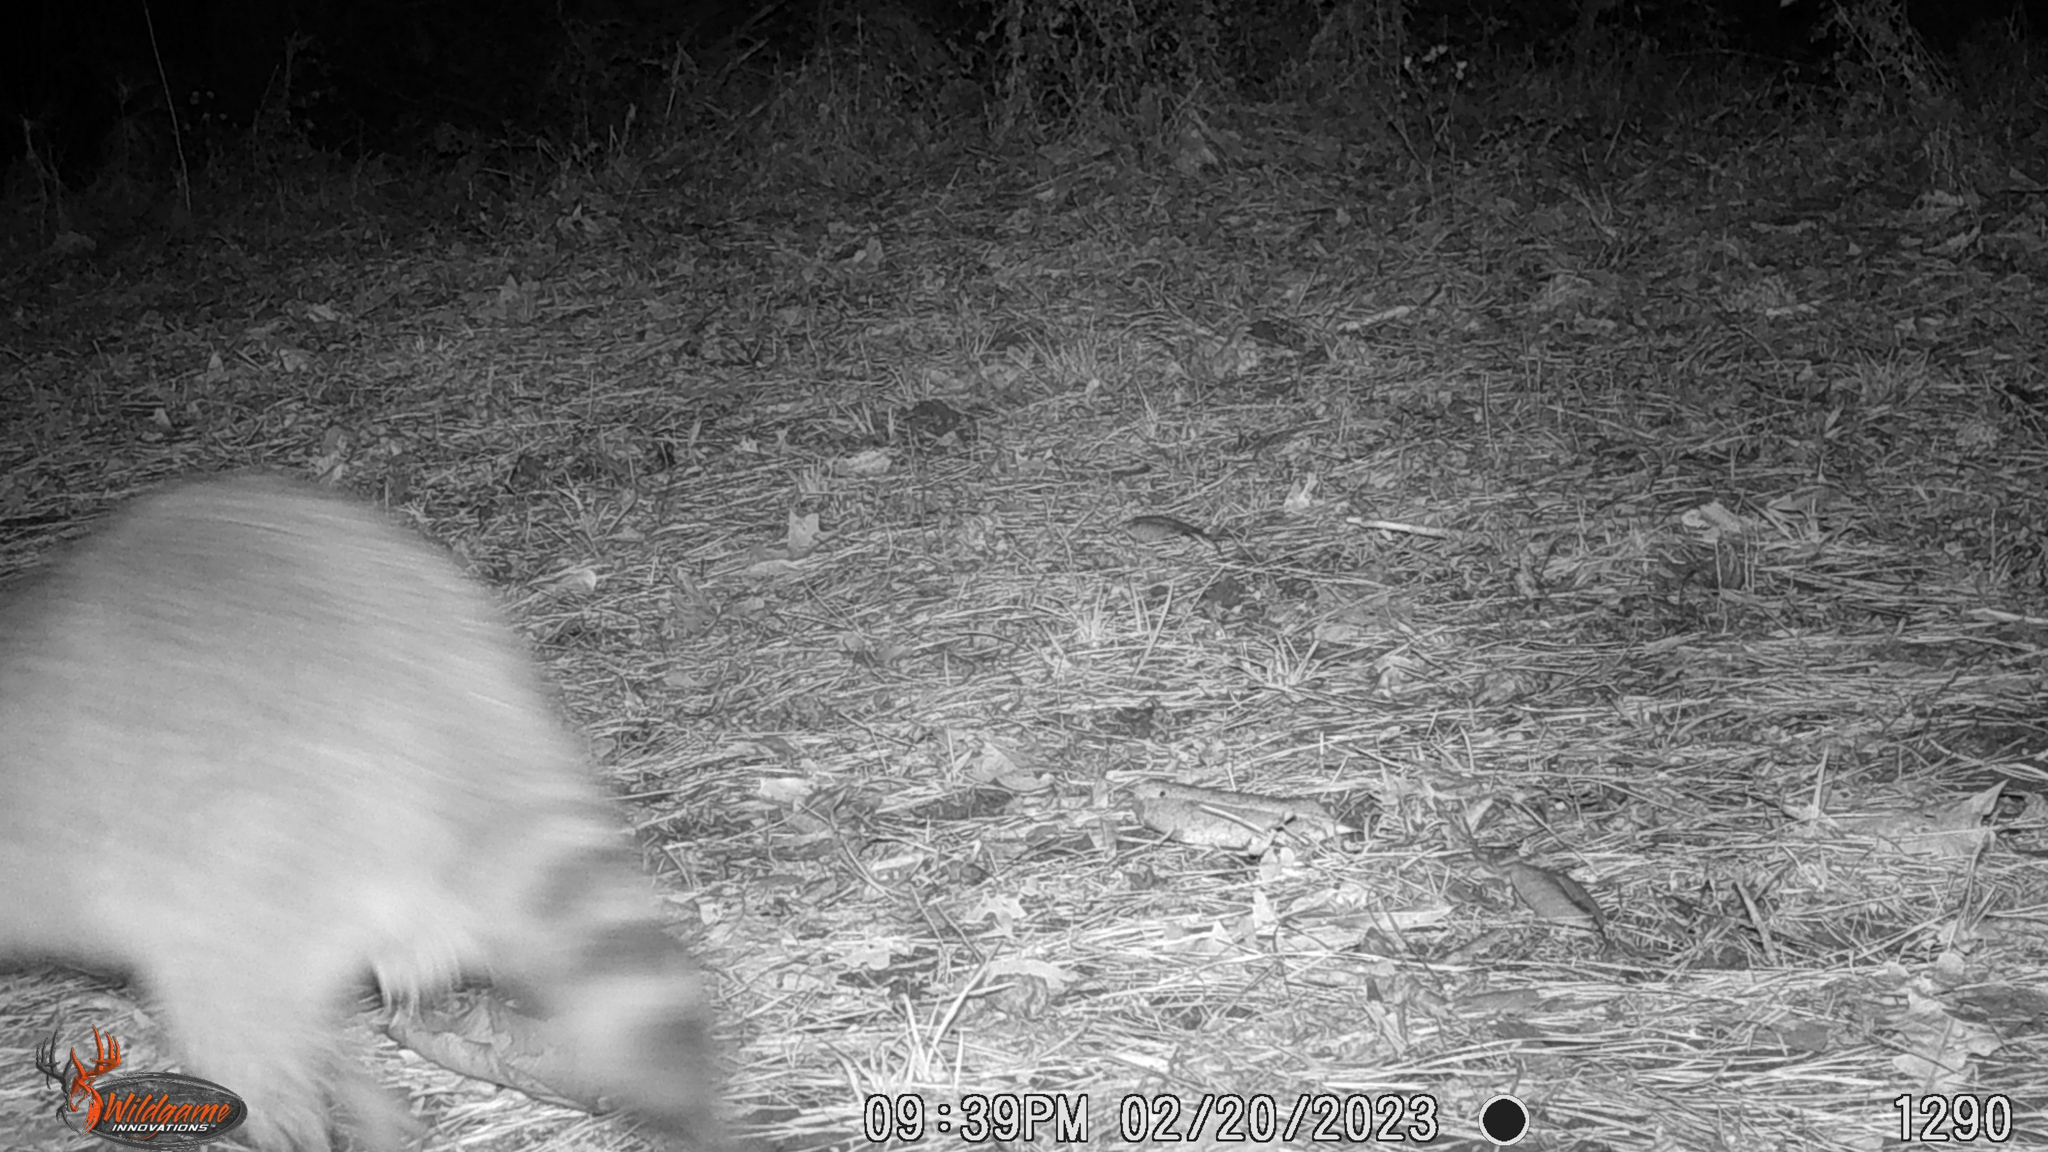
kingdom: Animalia
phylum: Chordata
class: Mammalia
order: Carnivora
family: Procyonidae
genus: Procyon
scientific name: Procyon lotor
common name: Raccoon
